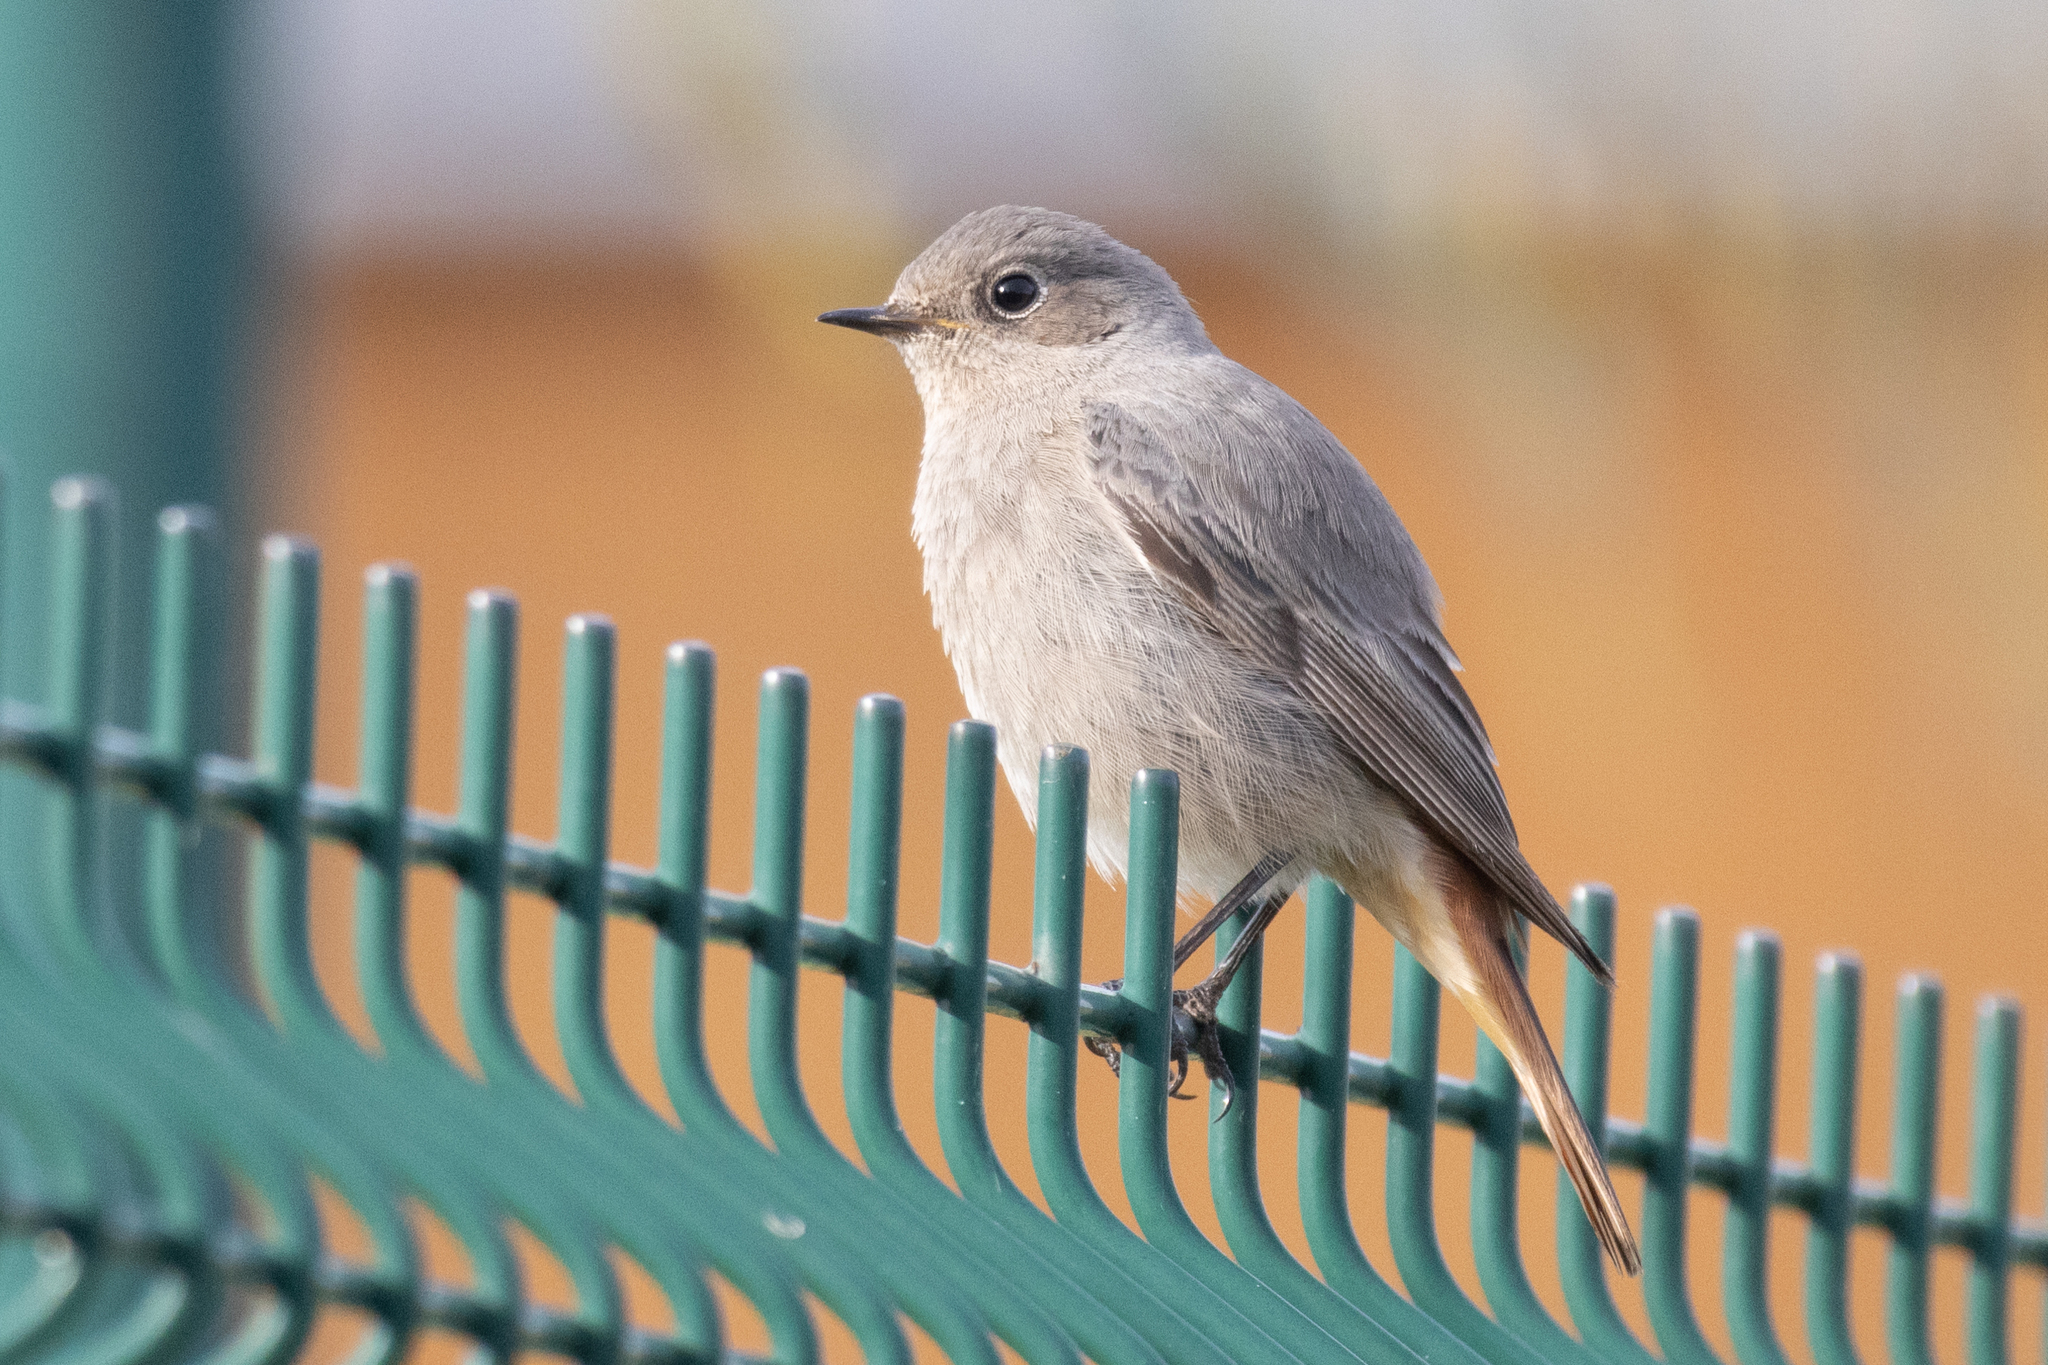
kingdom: Animalia
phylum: Chordata
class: Aves
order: Passeriformes
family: Muscicapidae
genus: Phoenicurus
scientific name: Phoenicurus ochruros
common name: Black redstart
